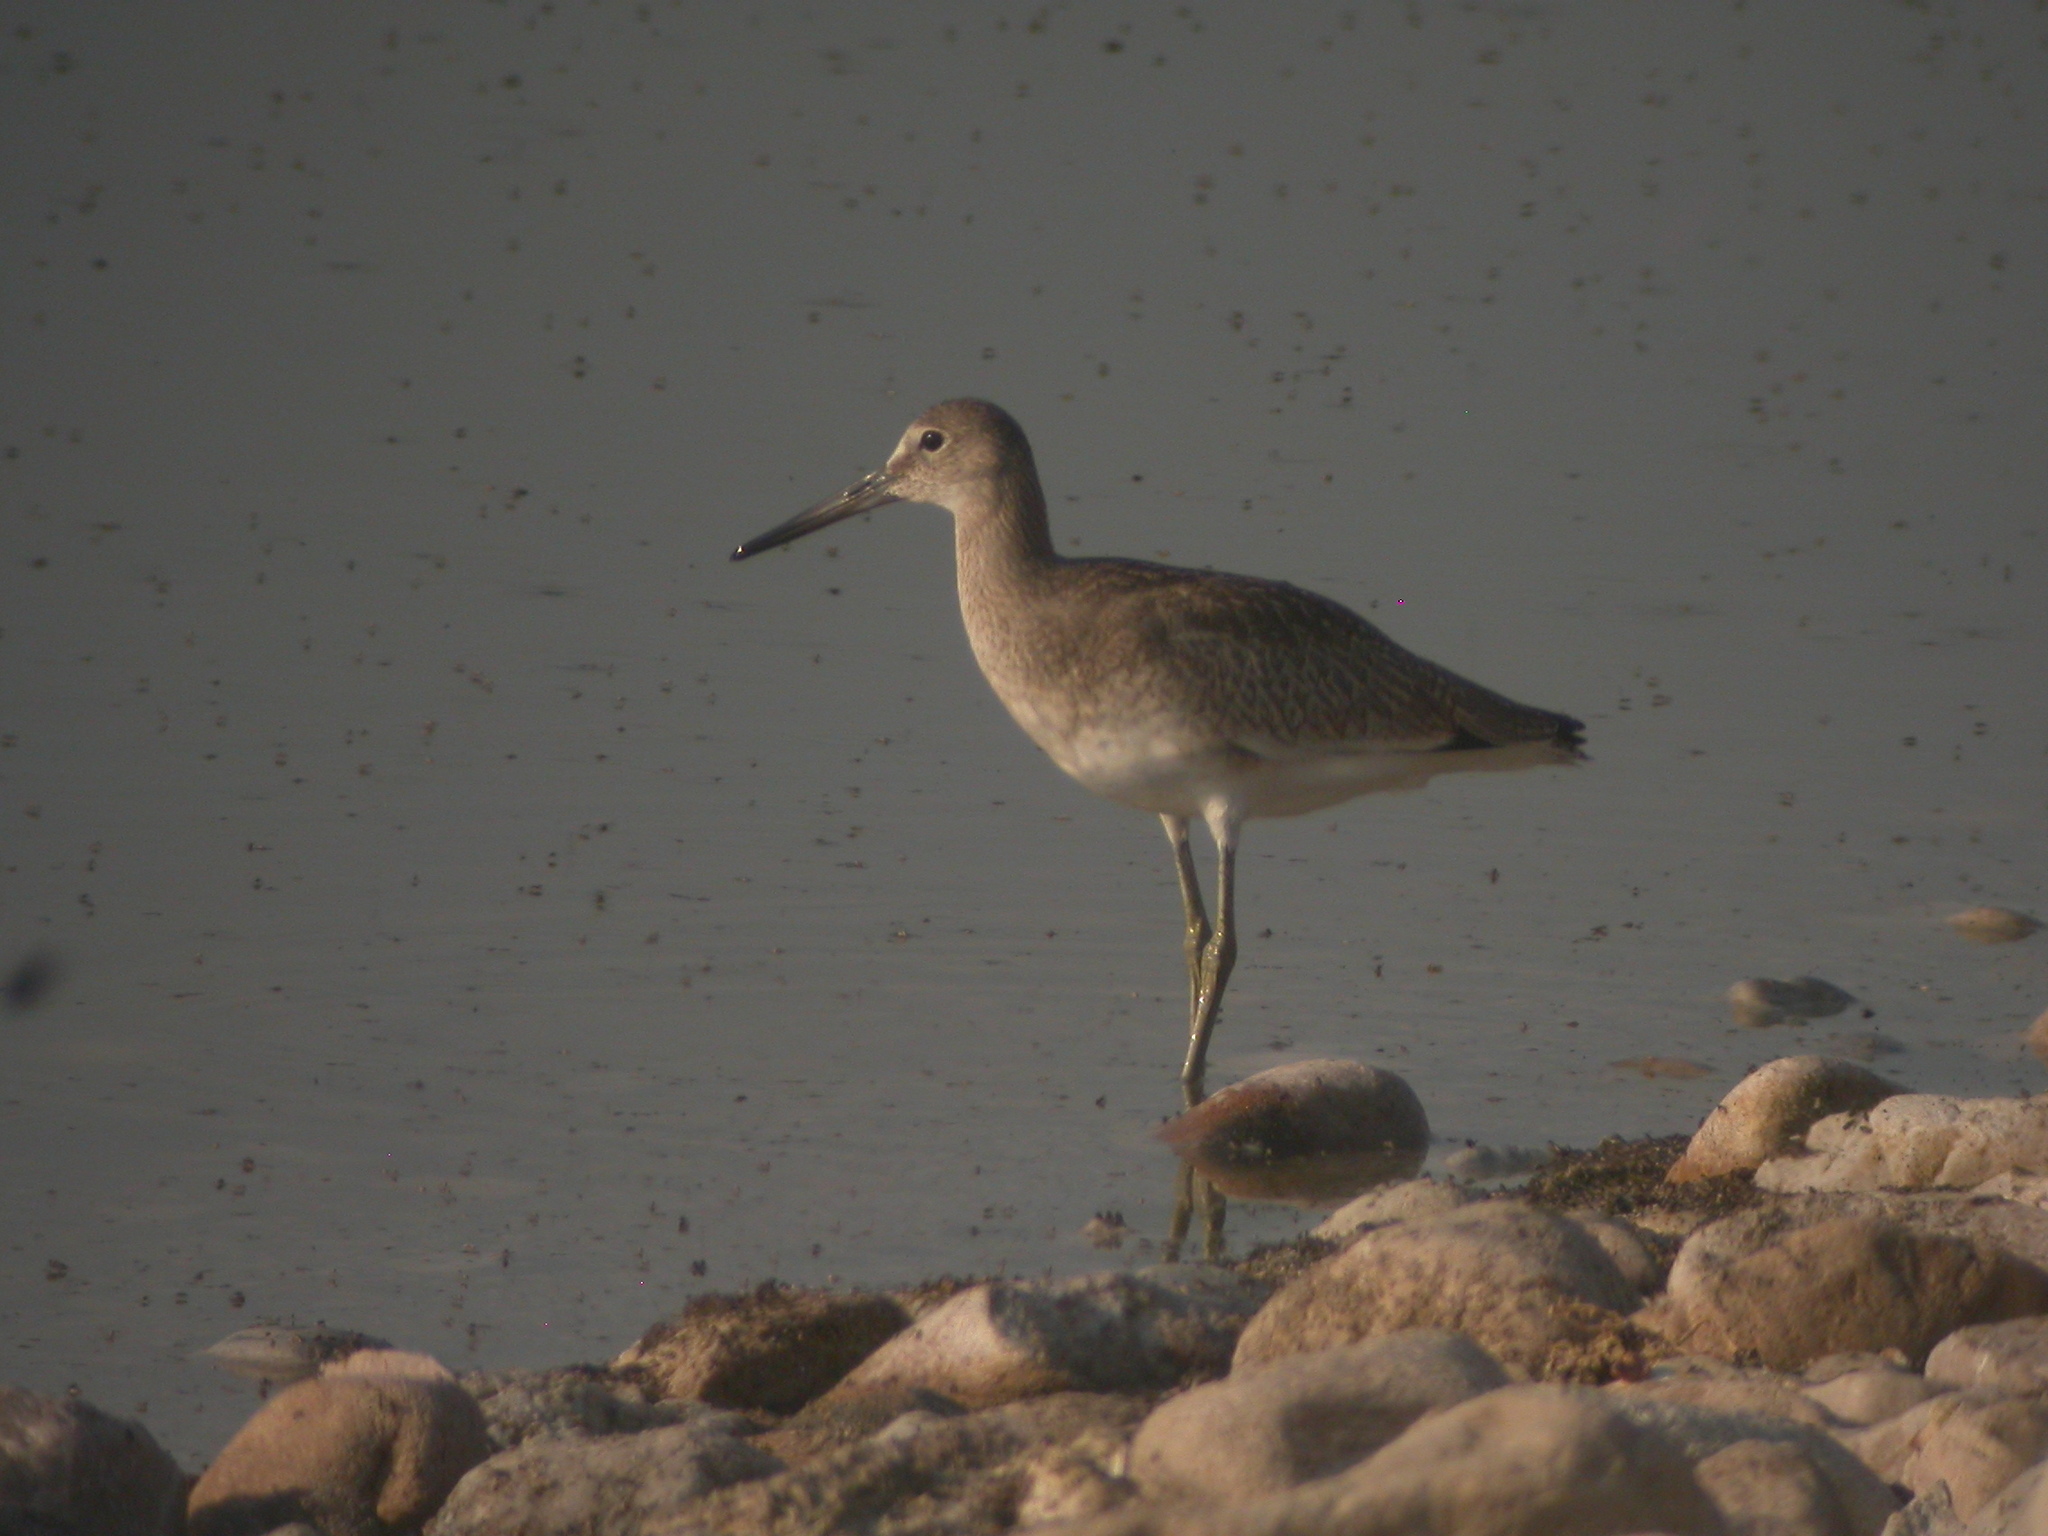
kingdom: Animalia
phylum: Chordata
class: Aves
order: Charadriiformes
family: Scolopacidae
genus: Tringa
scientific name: Tringa semipalmata
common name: Willet
